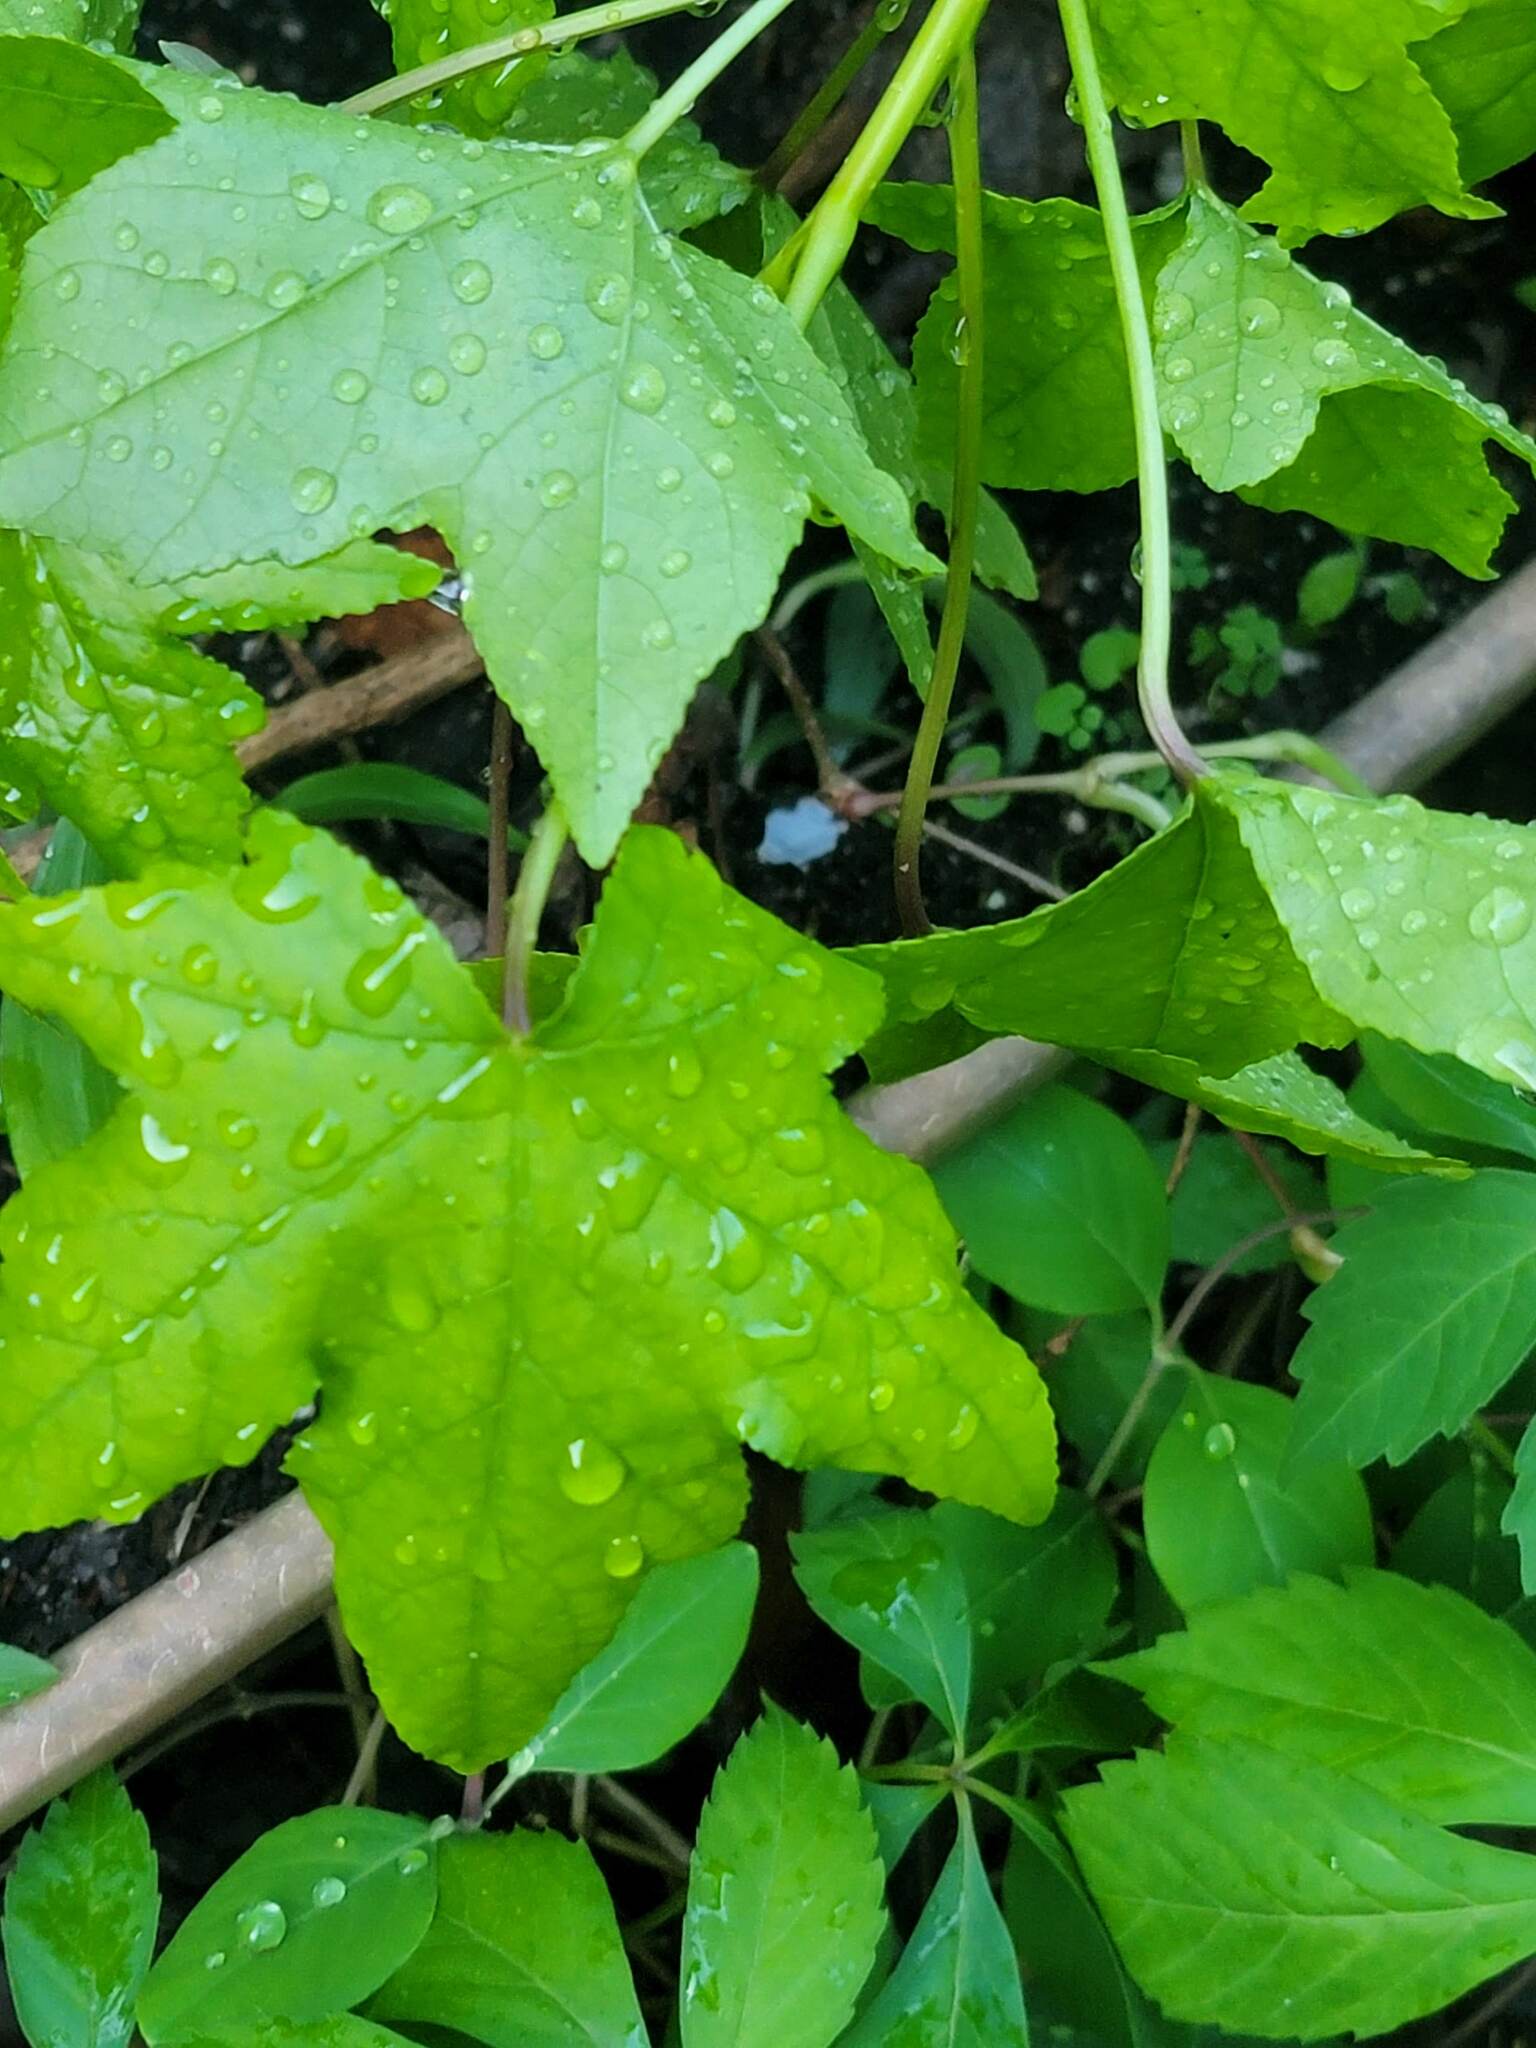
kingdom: Plantae
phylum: Tracheophyta
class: Magnoliopsida
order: Saxifragales
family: Altingiaceae
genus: Liquidambar
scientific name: Liquidambar styraciflua
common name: Sweet gum
